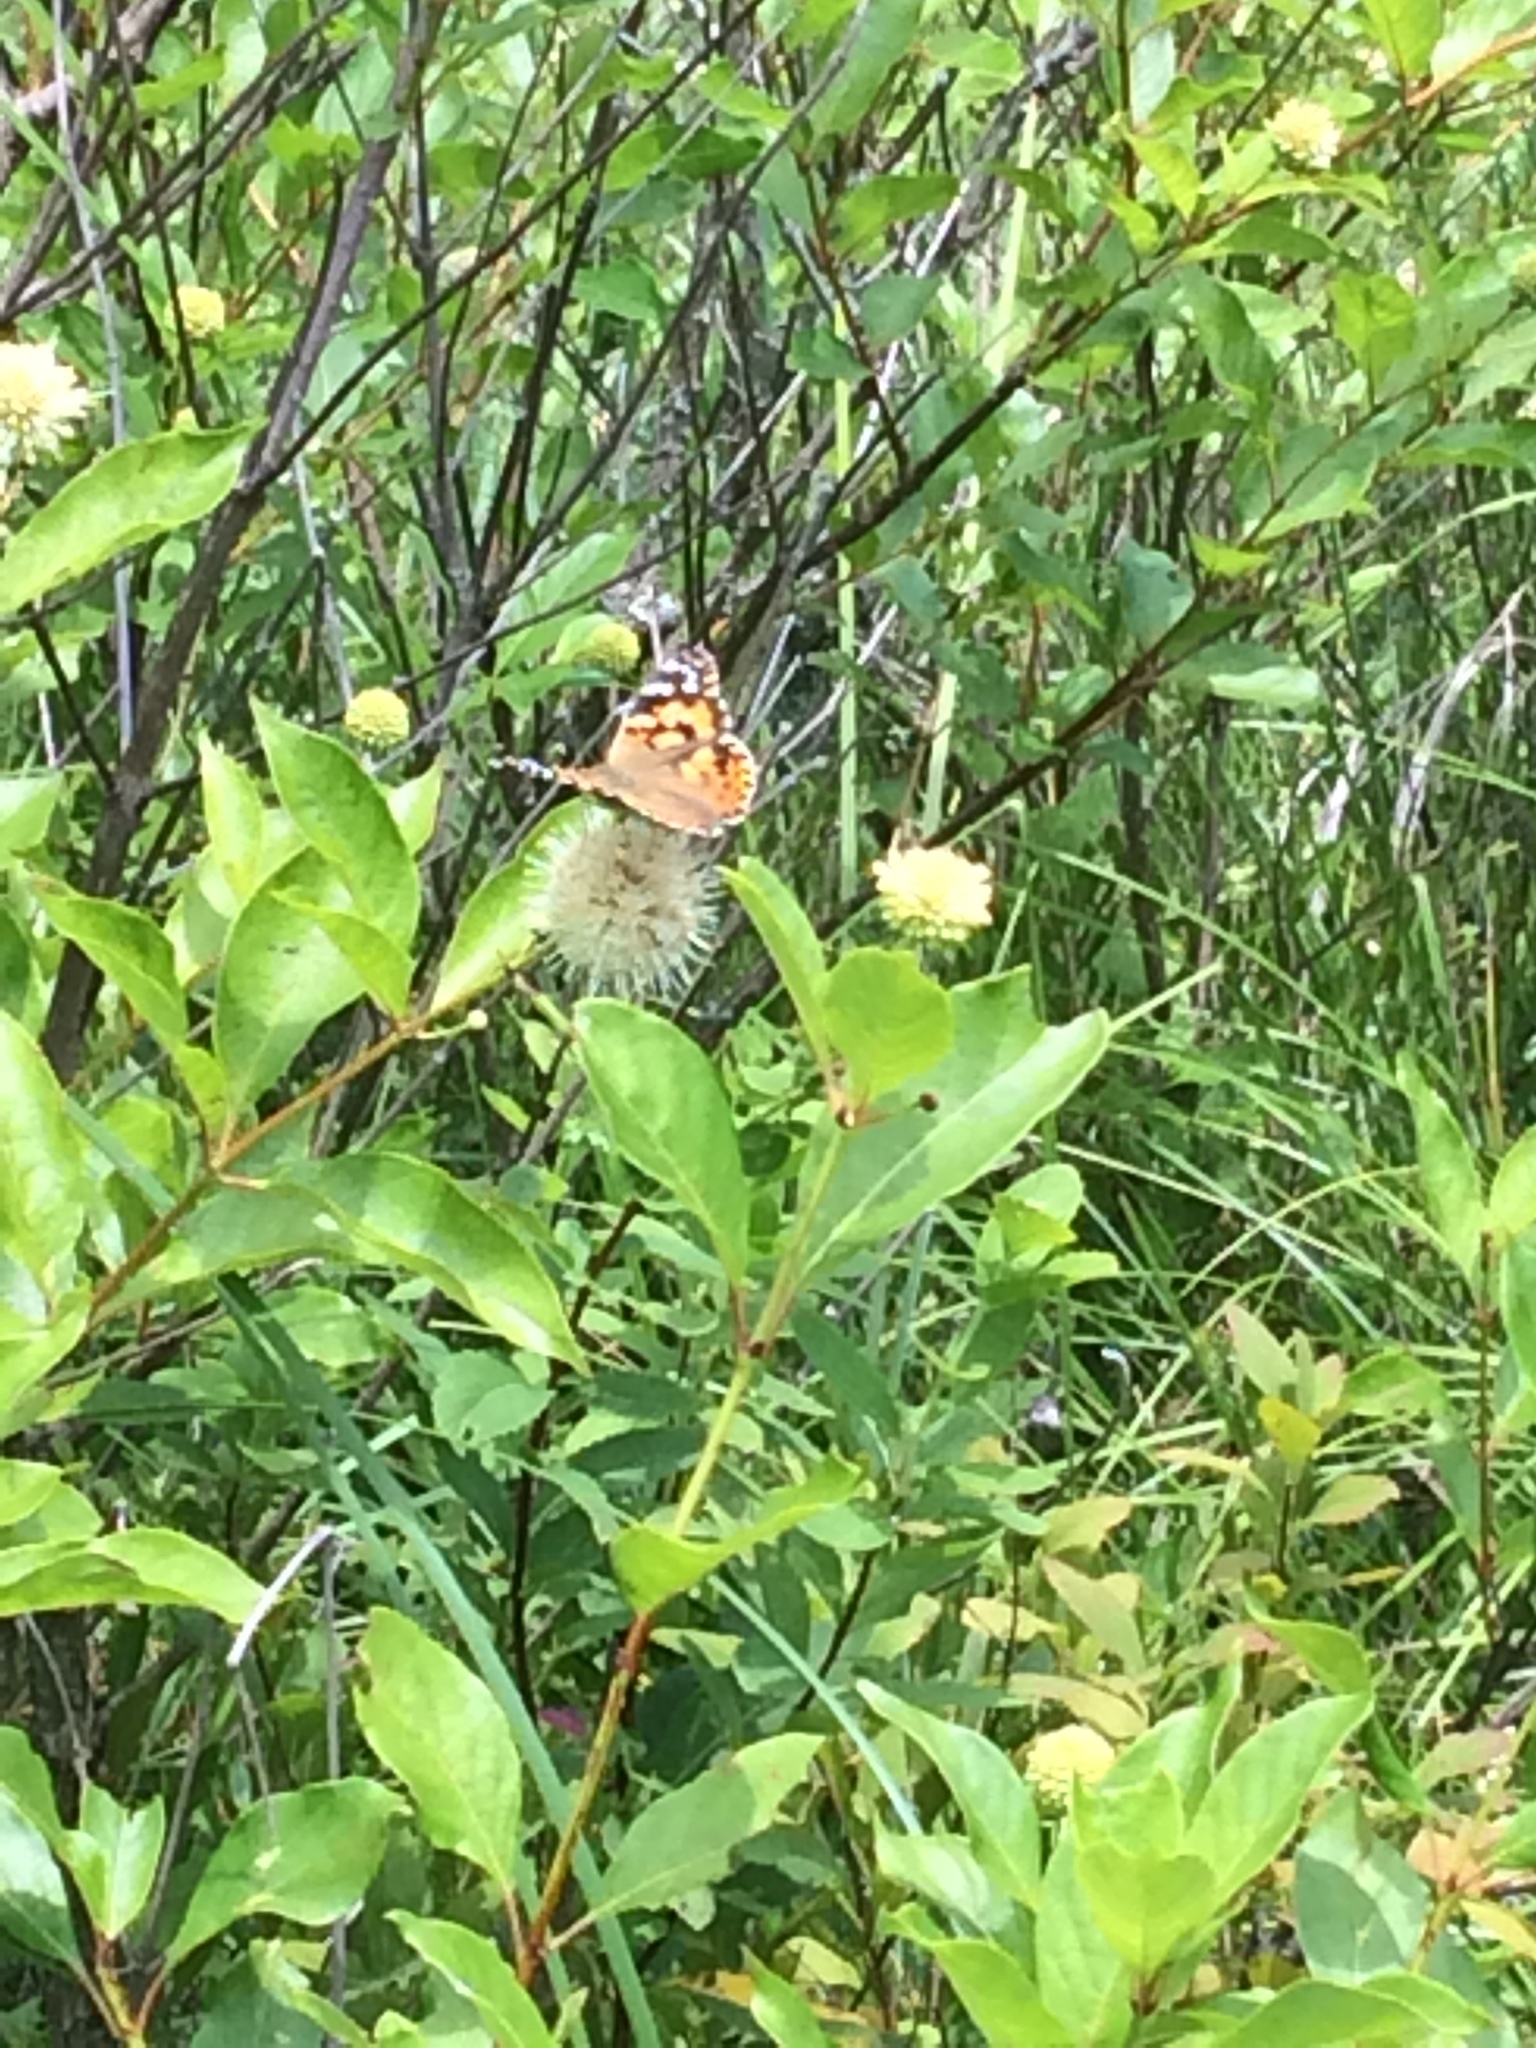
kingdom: Animalia
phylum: Arthropoda
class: Insecta
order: Lepidoptera
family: Nymphalidae
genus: Vanessa
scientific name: Vanessa cardui
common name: Painted lady
